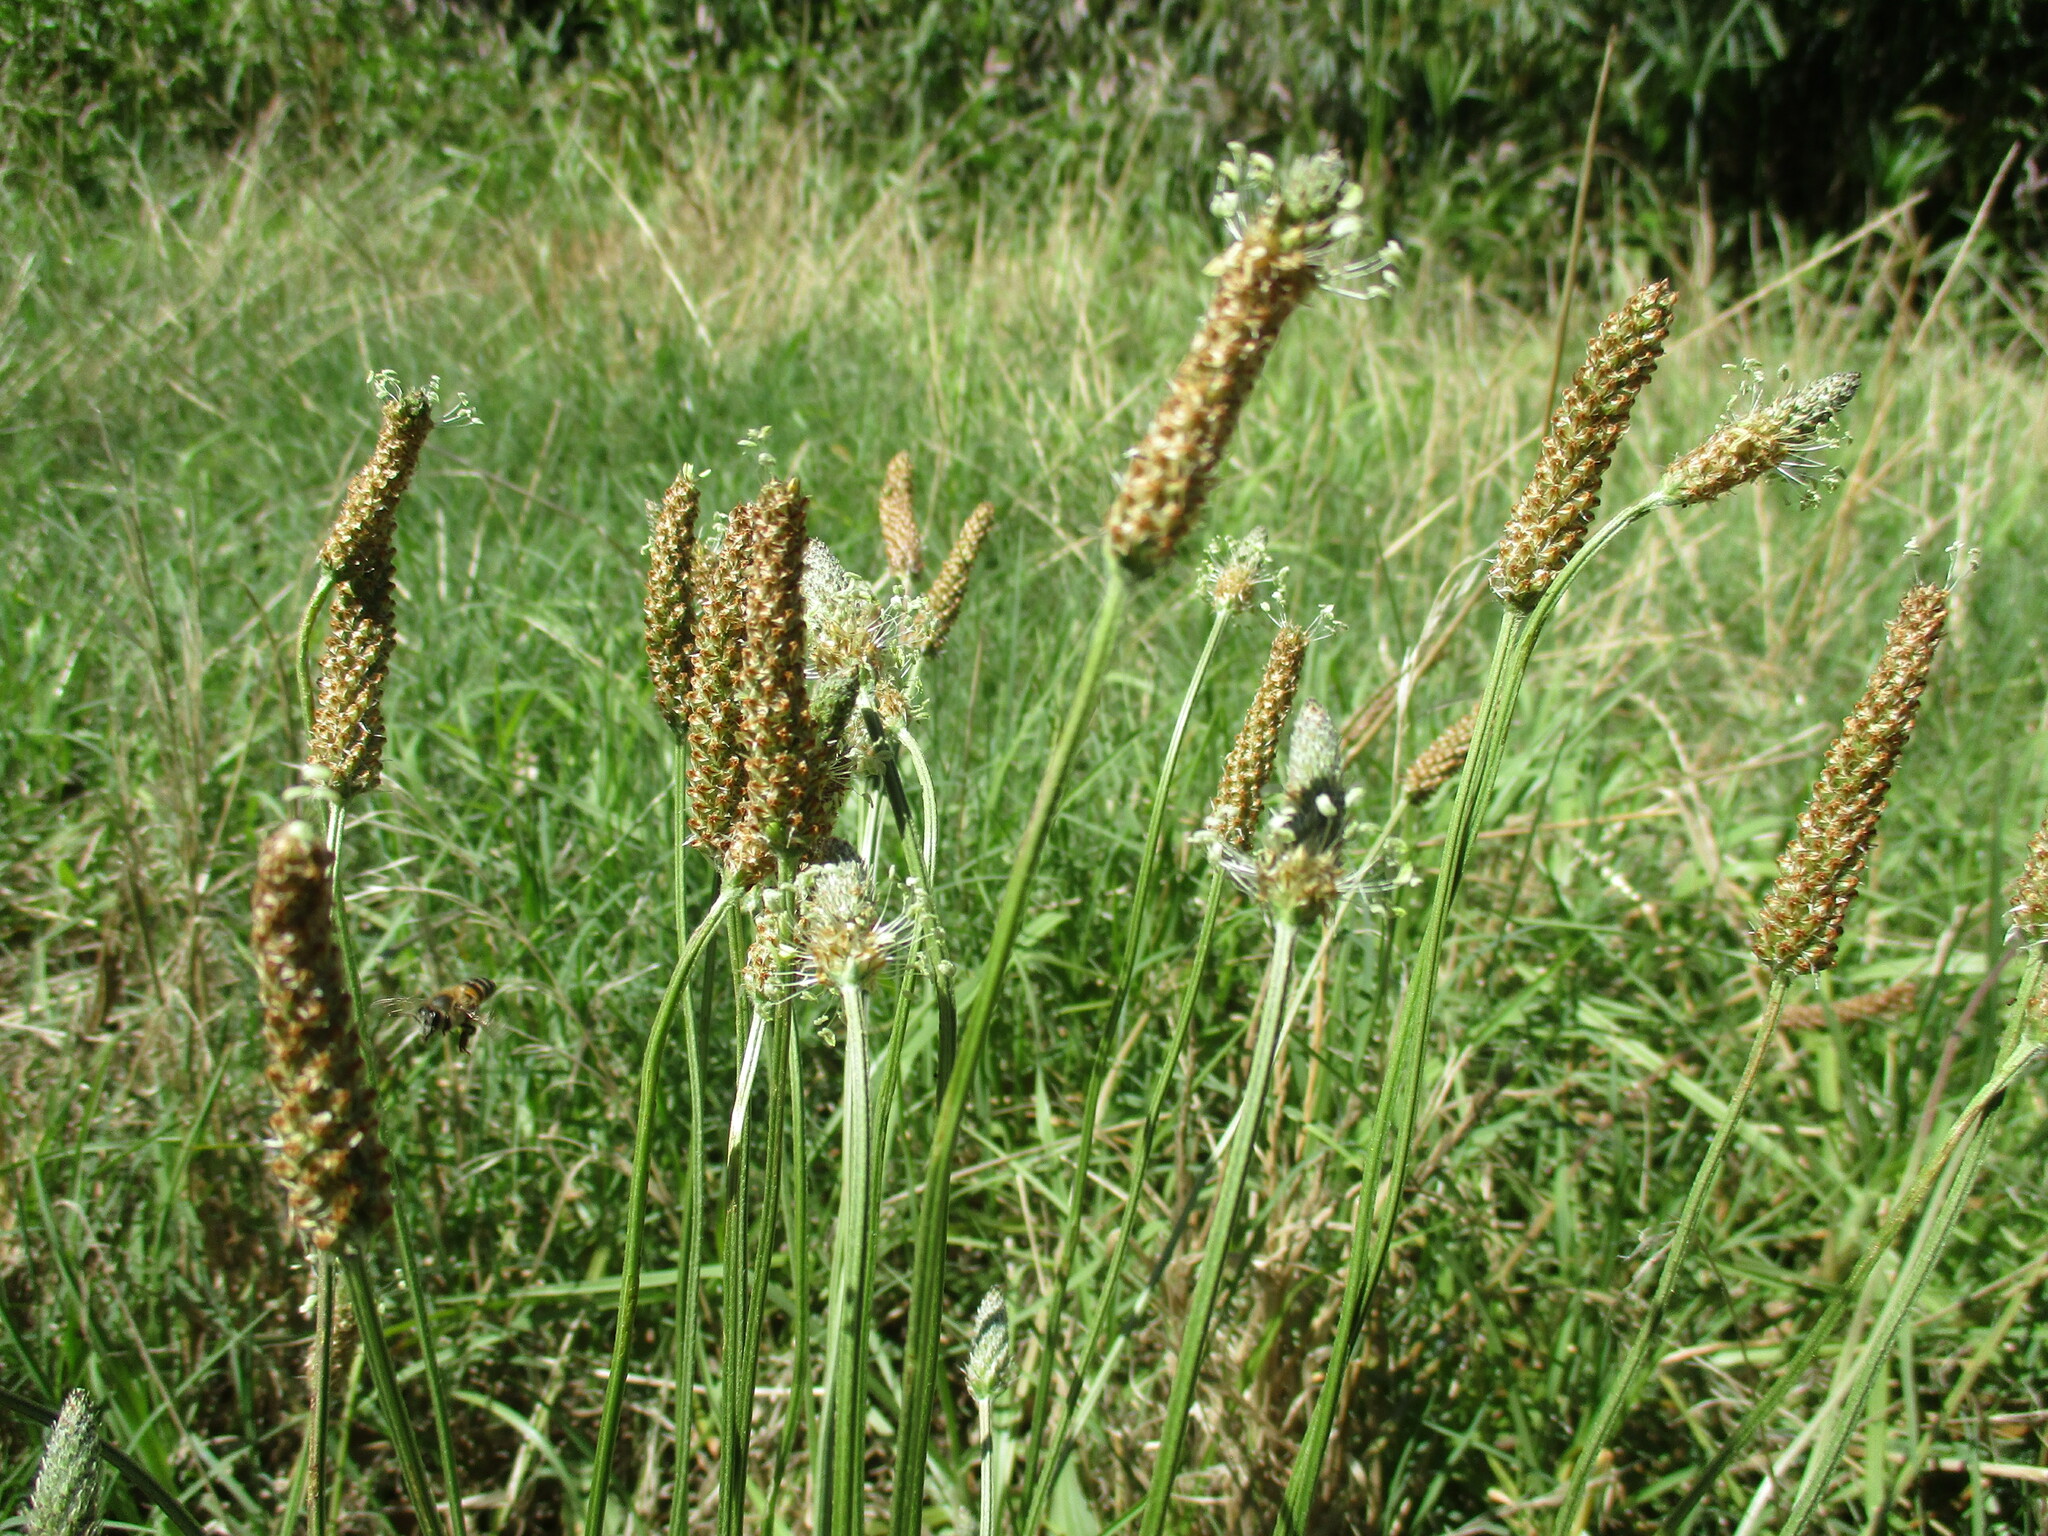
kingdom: Plantae
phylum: Tracheophyta
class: Magnoliopsida
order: Lamiales
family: Plantaginaceae
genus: Plantago
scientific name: Plantago lanceolata
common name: Ribwort plantain
